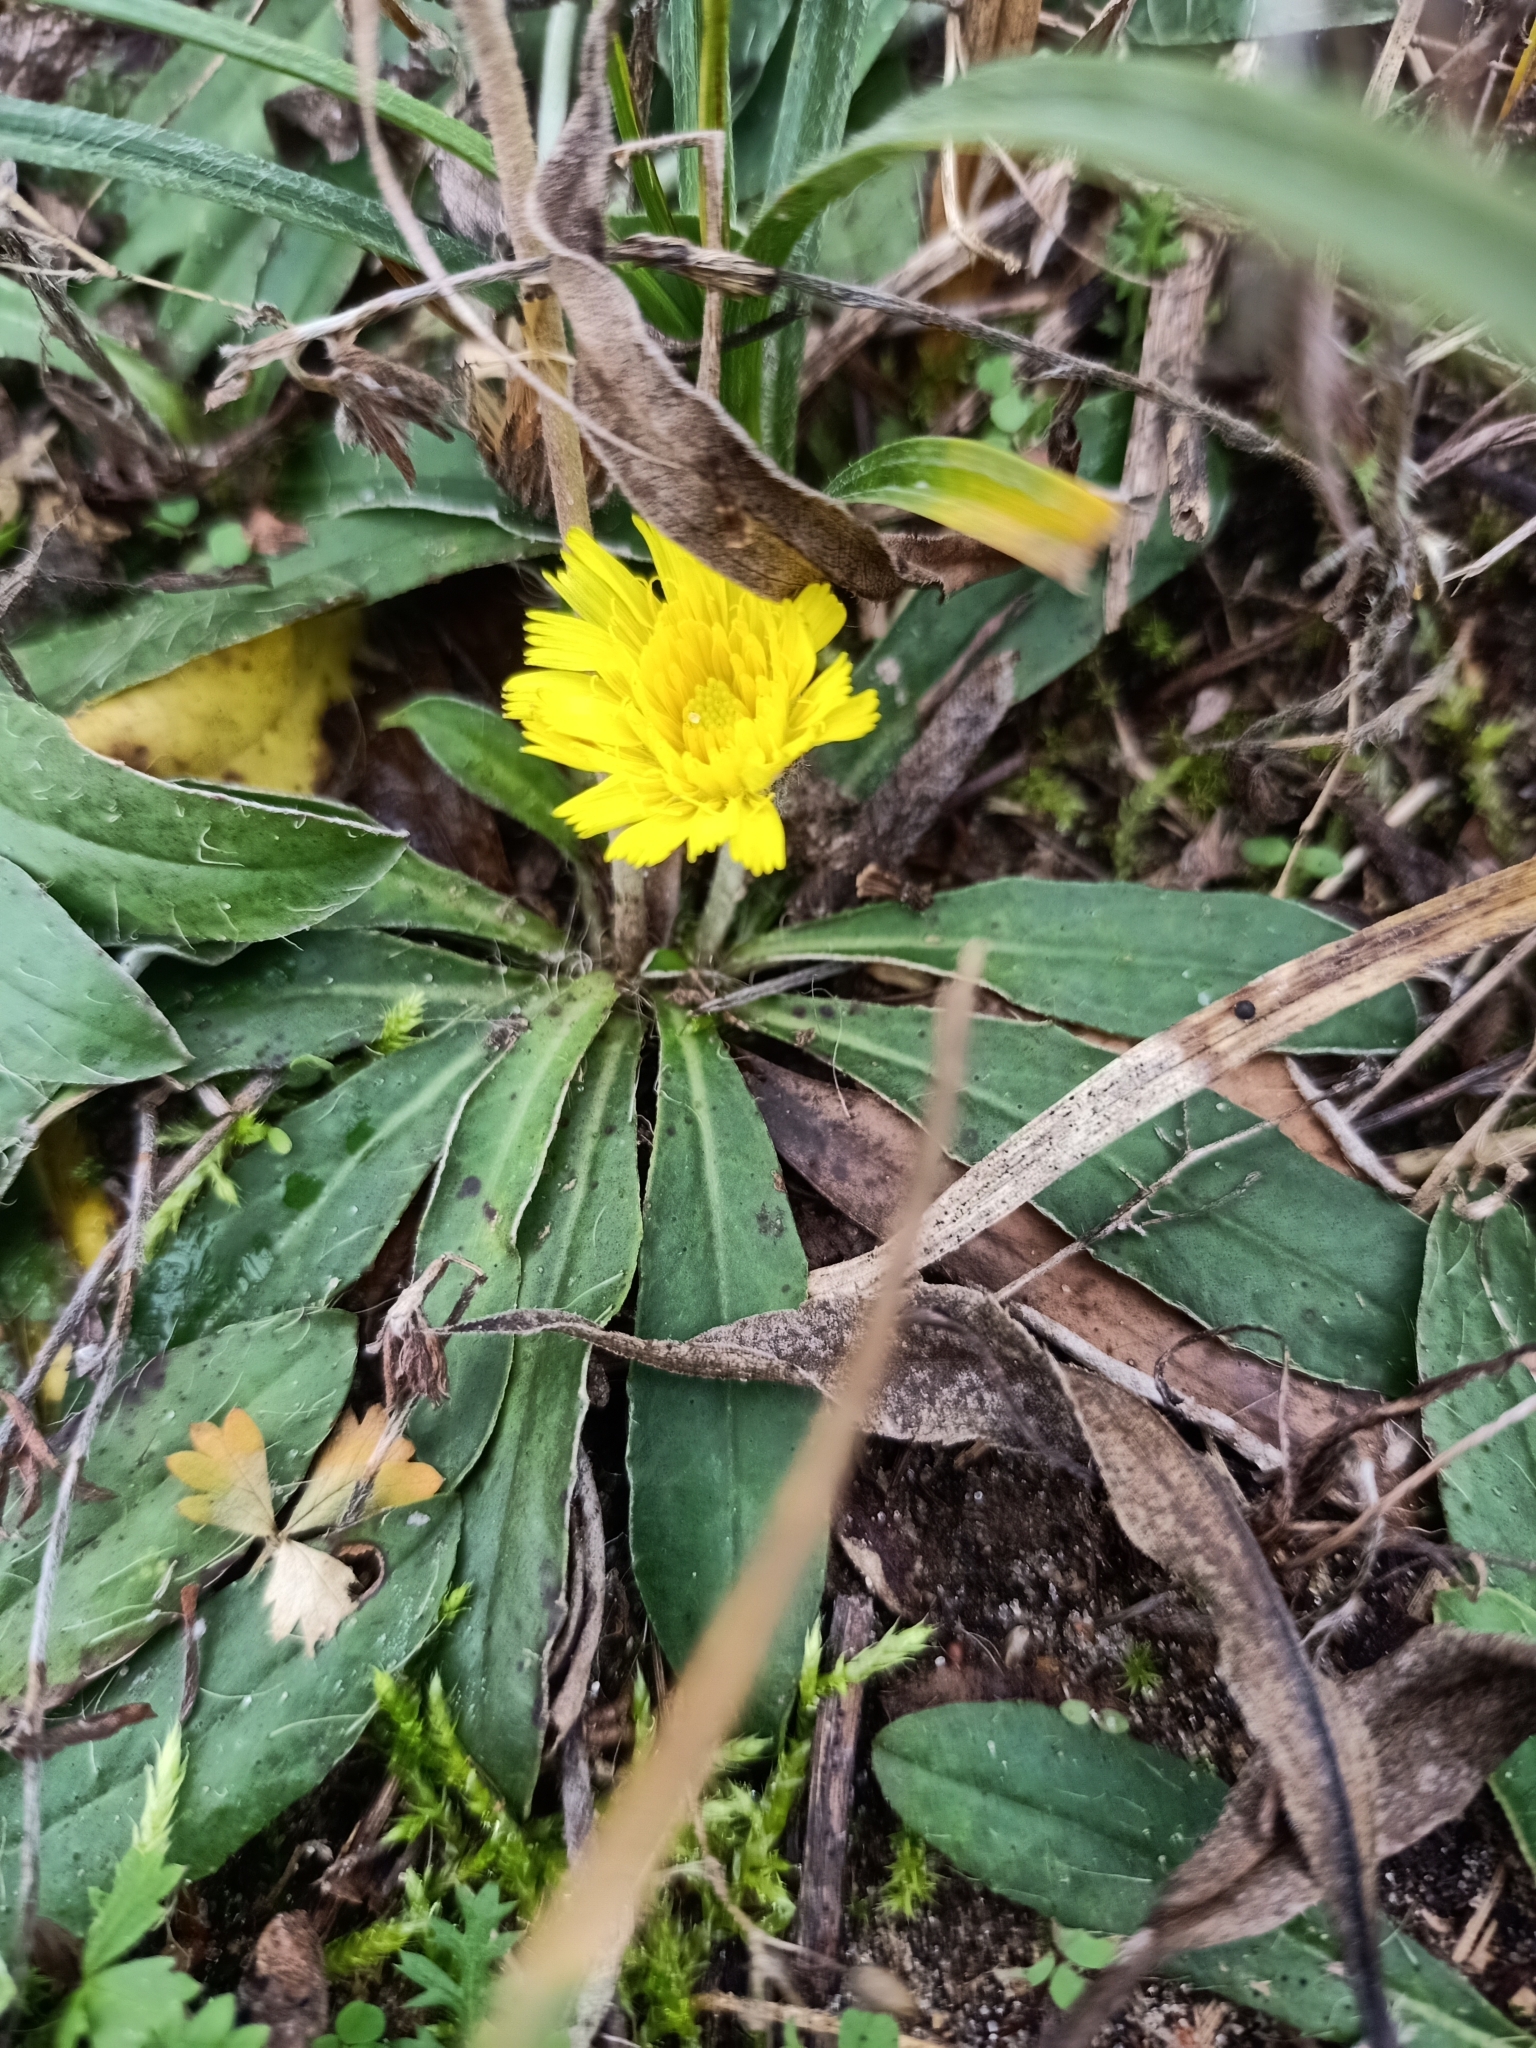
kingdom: Plantae
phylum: Tracheophyta
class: Magnoliopsida
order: Asterales
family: Asteraceae
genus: Pilosella
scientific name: Pilosella officinarum
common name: Mouse-ear hawkweed
